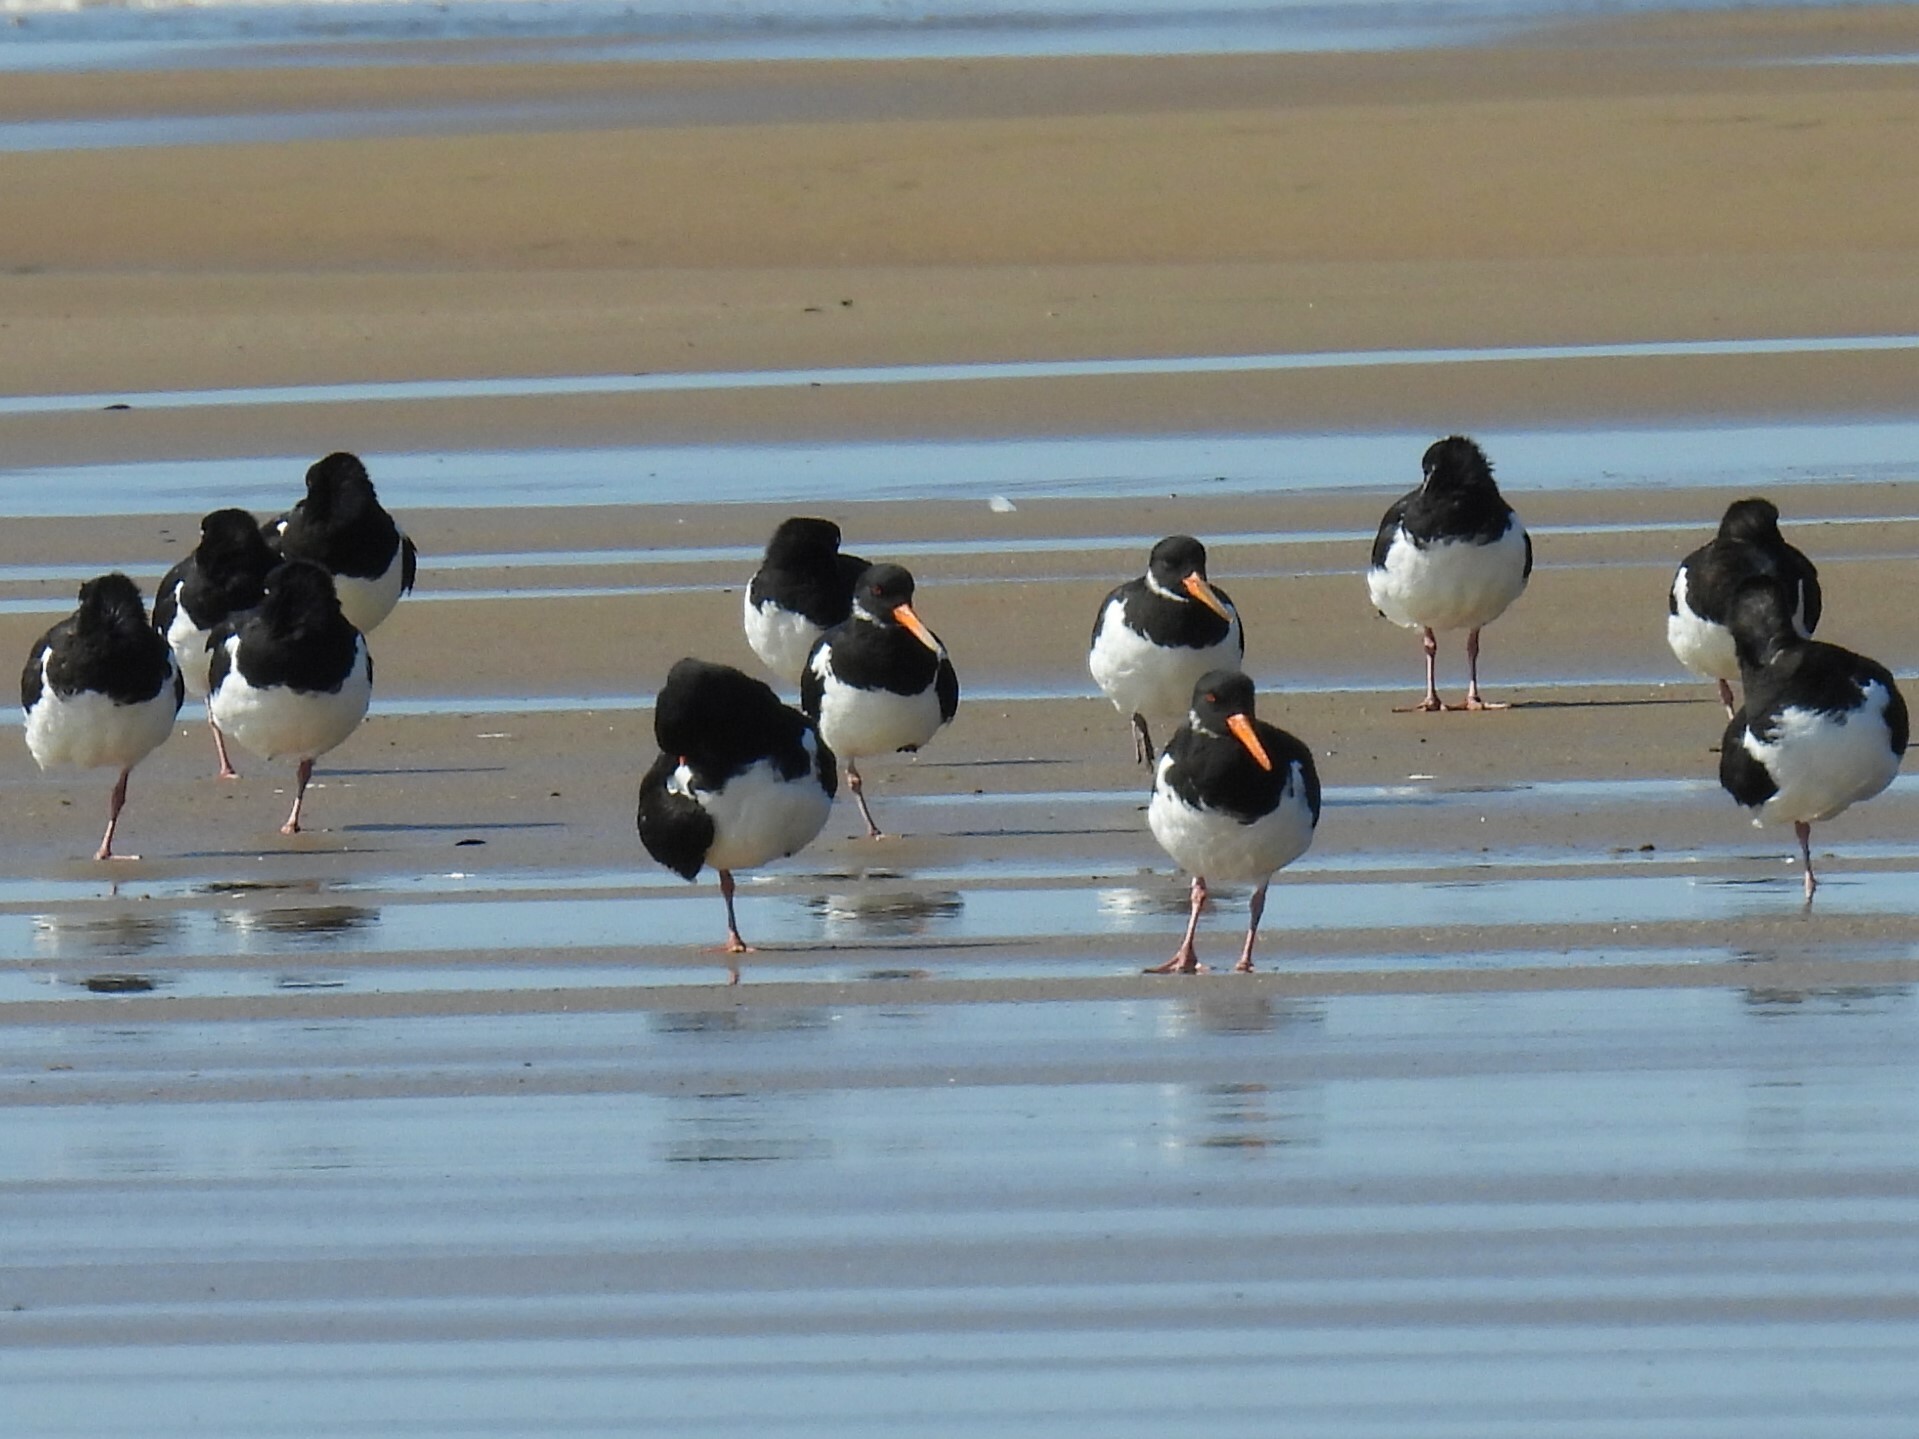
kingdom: Animalia
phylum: Chordata
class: Aves
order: Charadriiformes
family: Haematopodidae
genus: Haematopus
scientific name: Haematopus ostralegus
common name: Eurasian oystercatcher
